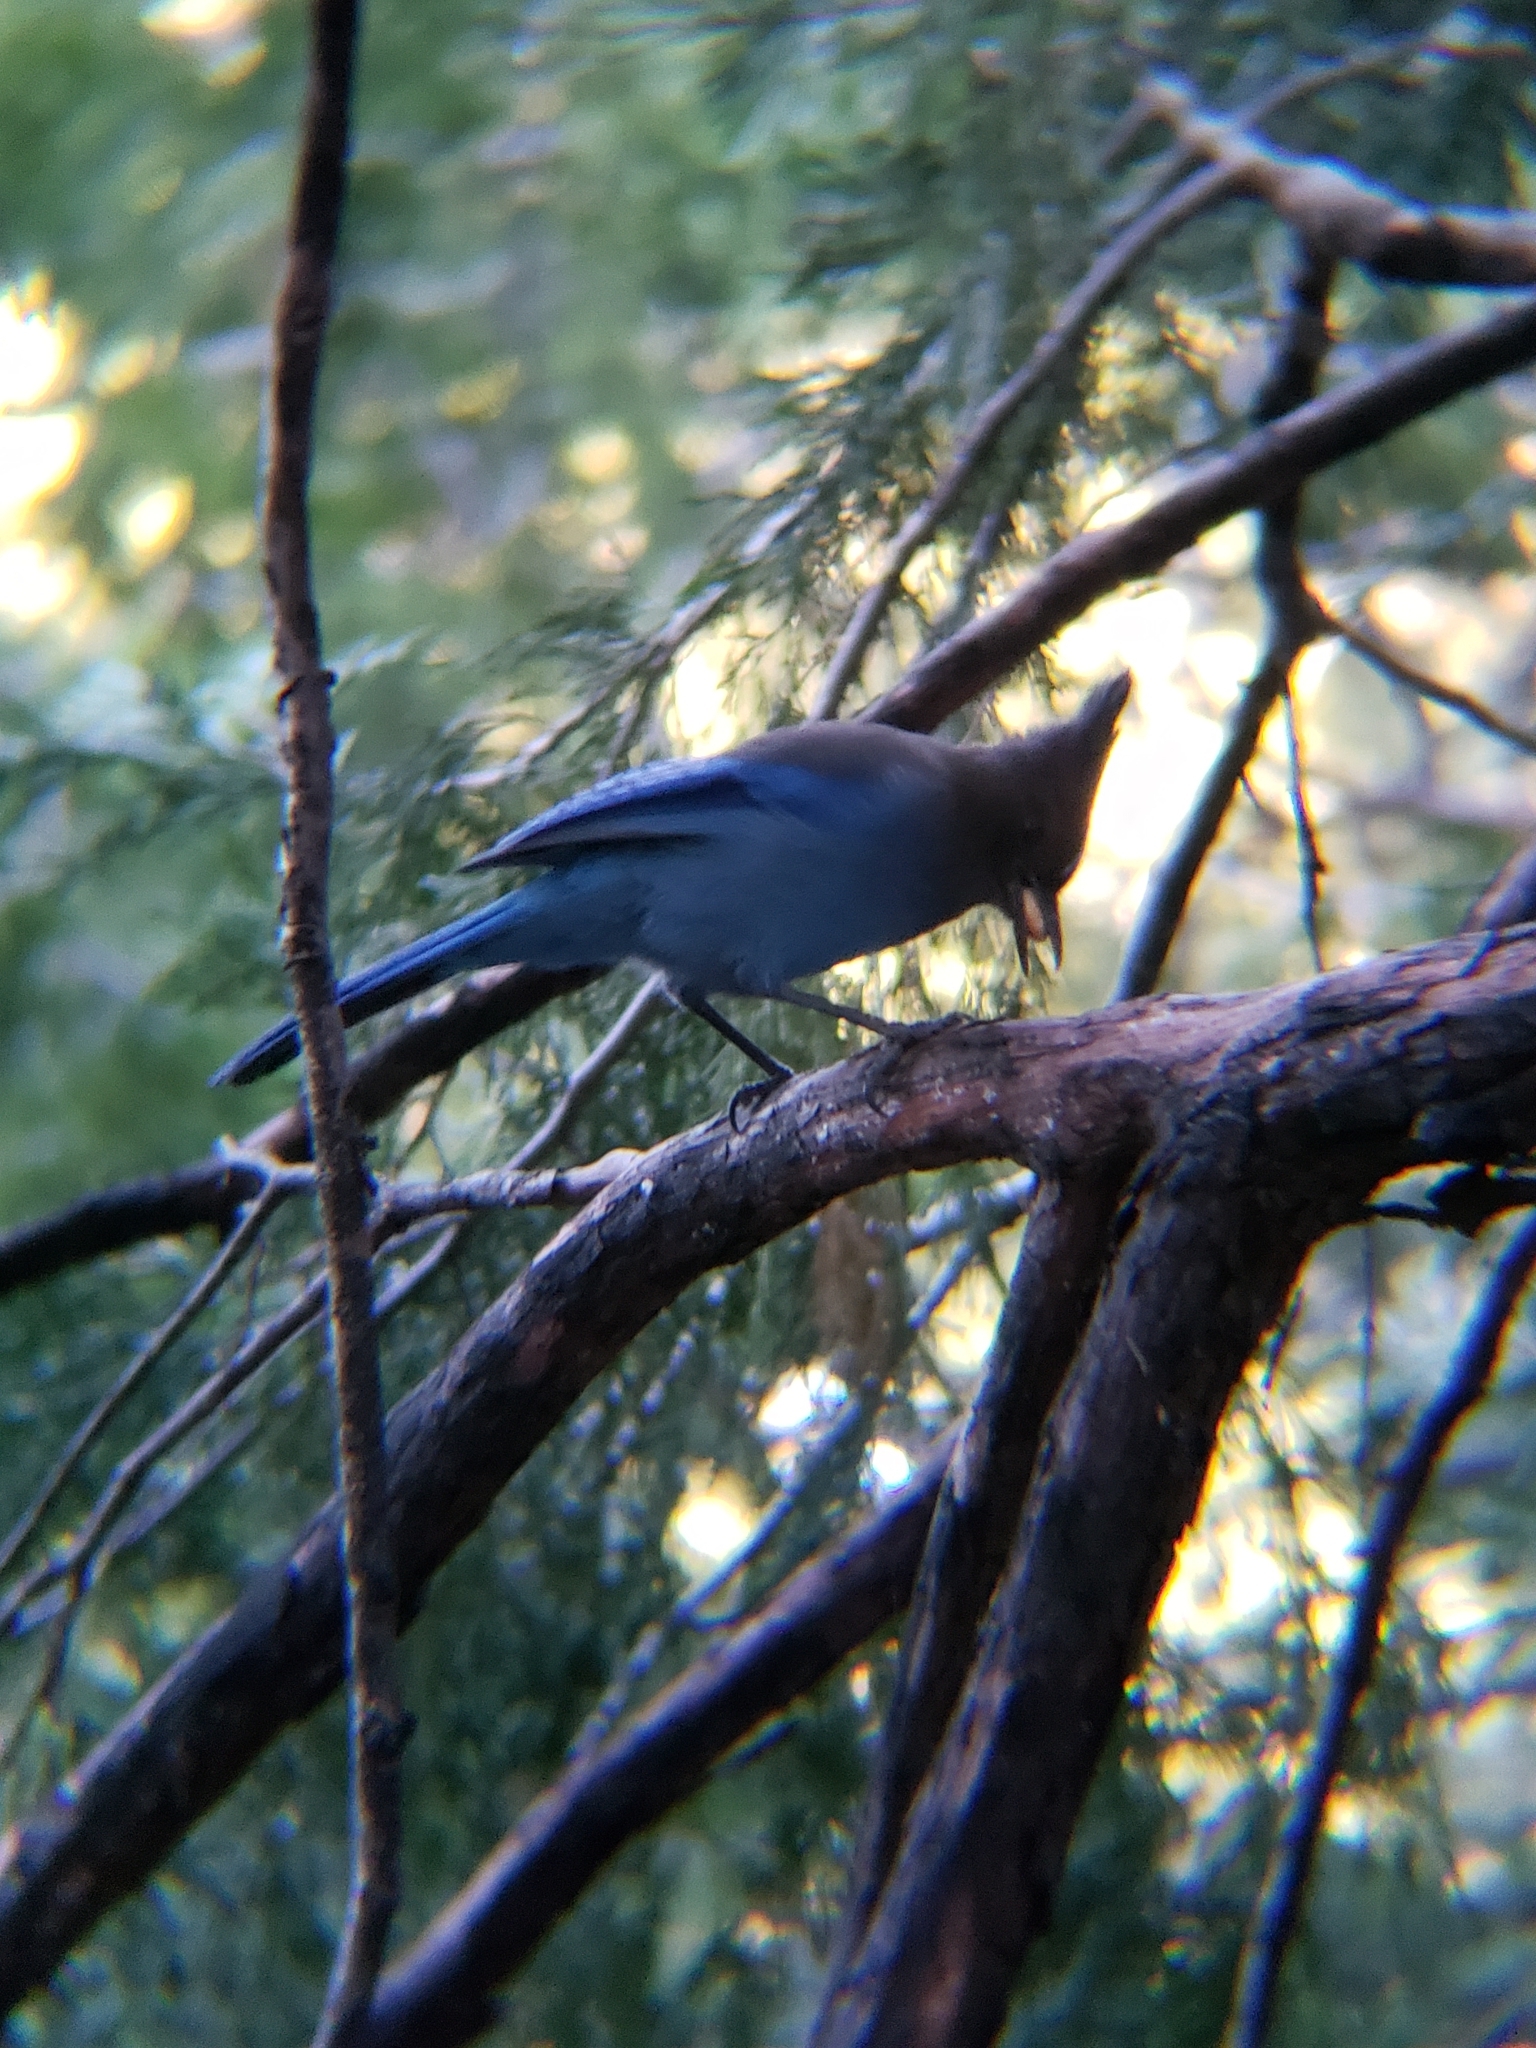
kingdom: Animalia
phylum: Chordata
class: Aves
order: Passeriformes
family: Corvidae
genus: Cyanocitta
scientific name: Cyanocitta stelleri
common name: Steller's jay
